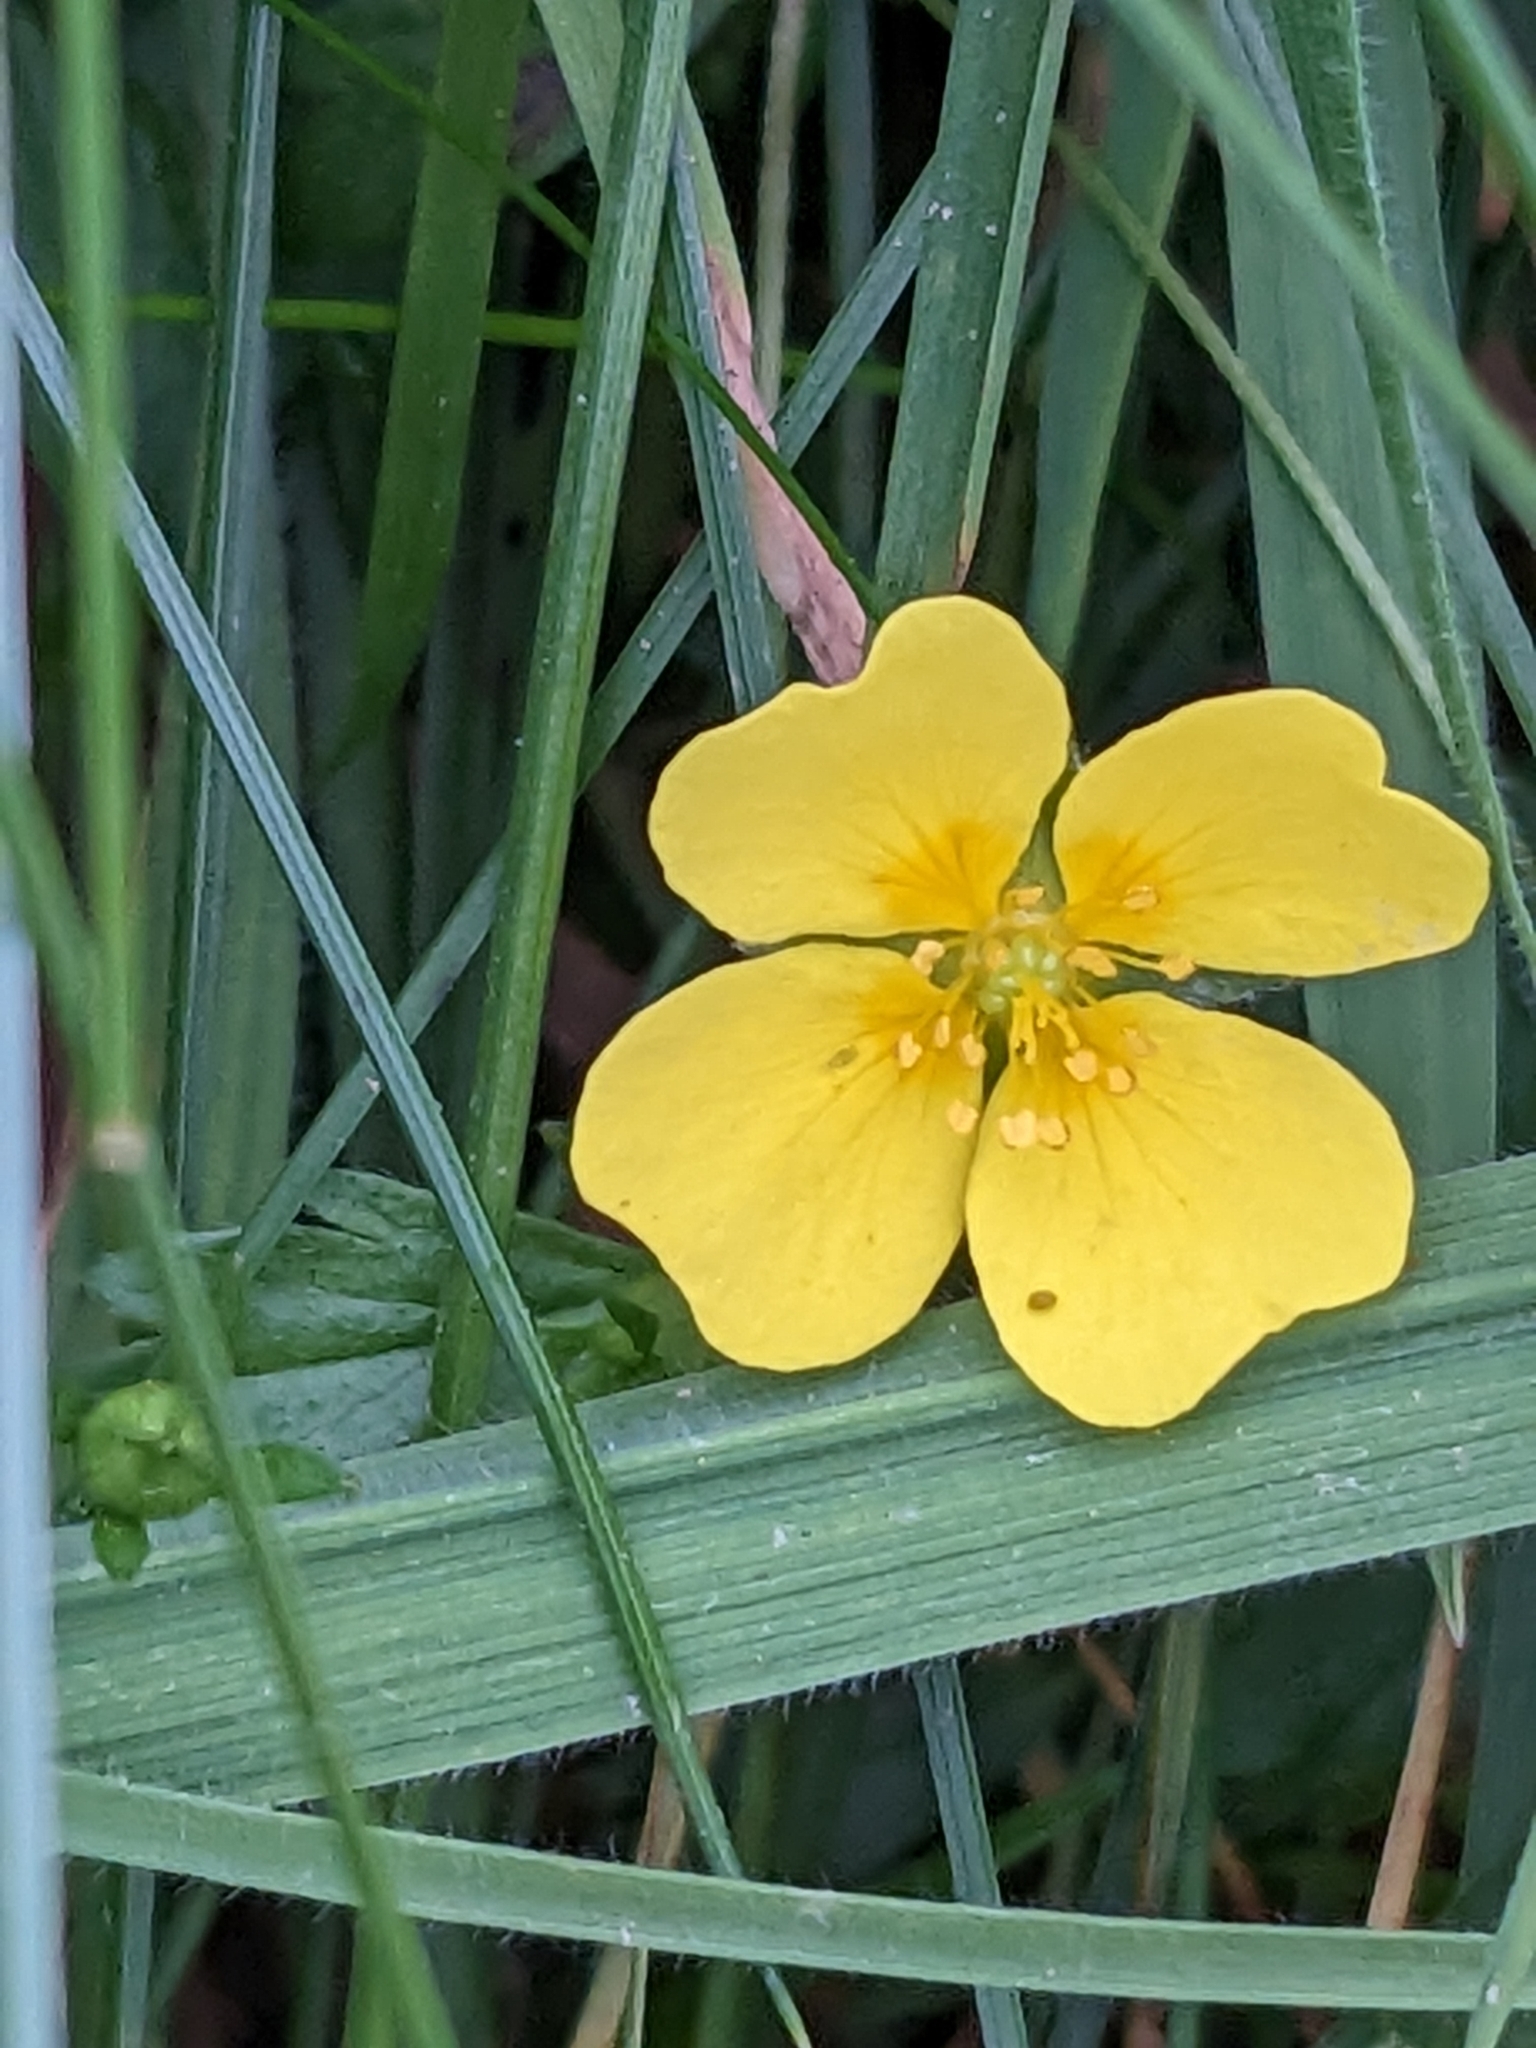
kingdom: Plantae
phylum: Tracheophyta
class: Magnoliopsida
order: Rosales
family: Rosaceae
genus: Potentilla
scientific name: Potentilla erecta
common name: Tormentil
